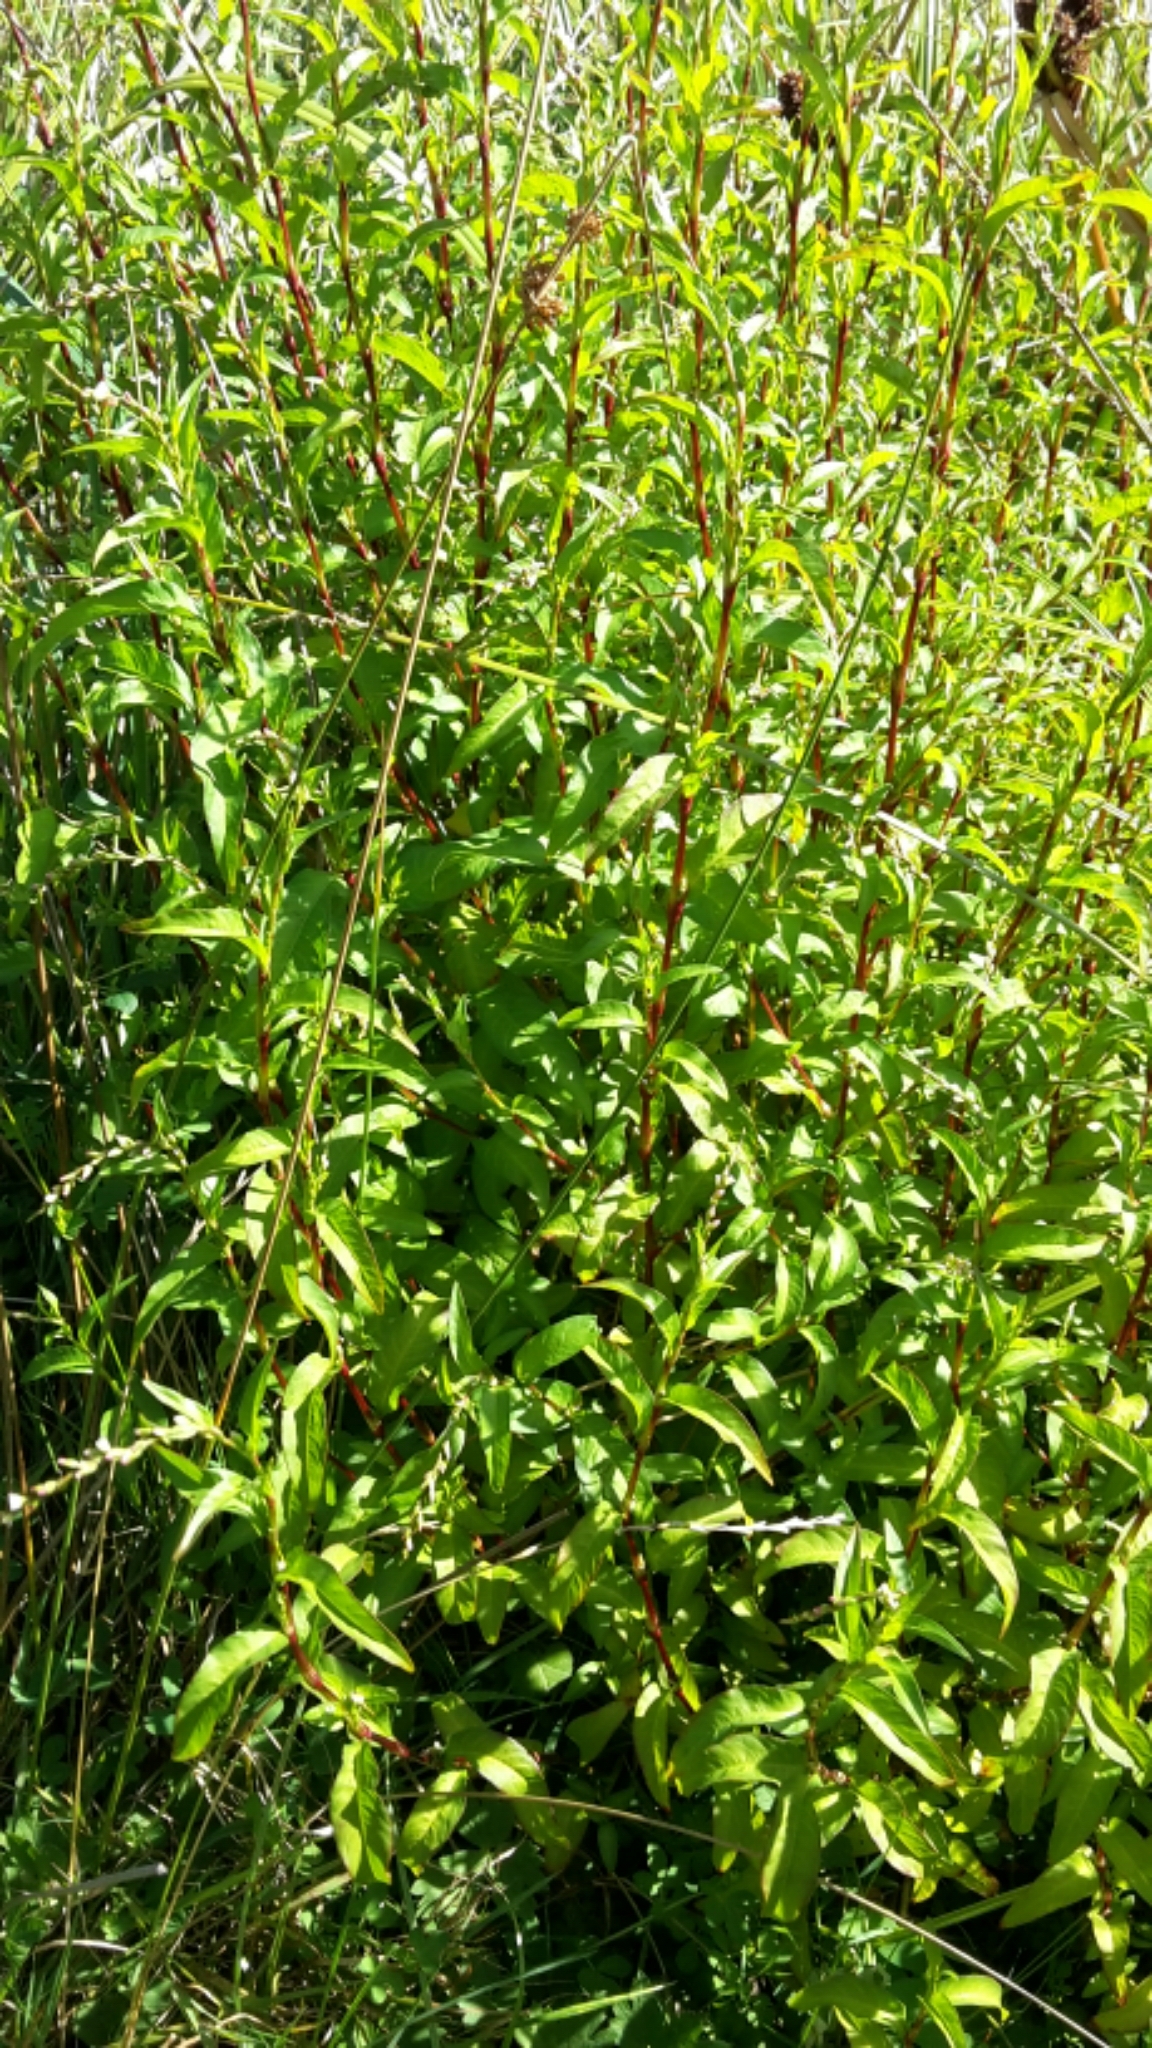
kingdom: Plantae
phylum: Tracheophyta
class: Magnoliopsida
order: Caryophyllales
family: Polygonaceae
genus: Persicaria
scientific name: Persicaria hydropiper
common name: Water-pepper
